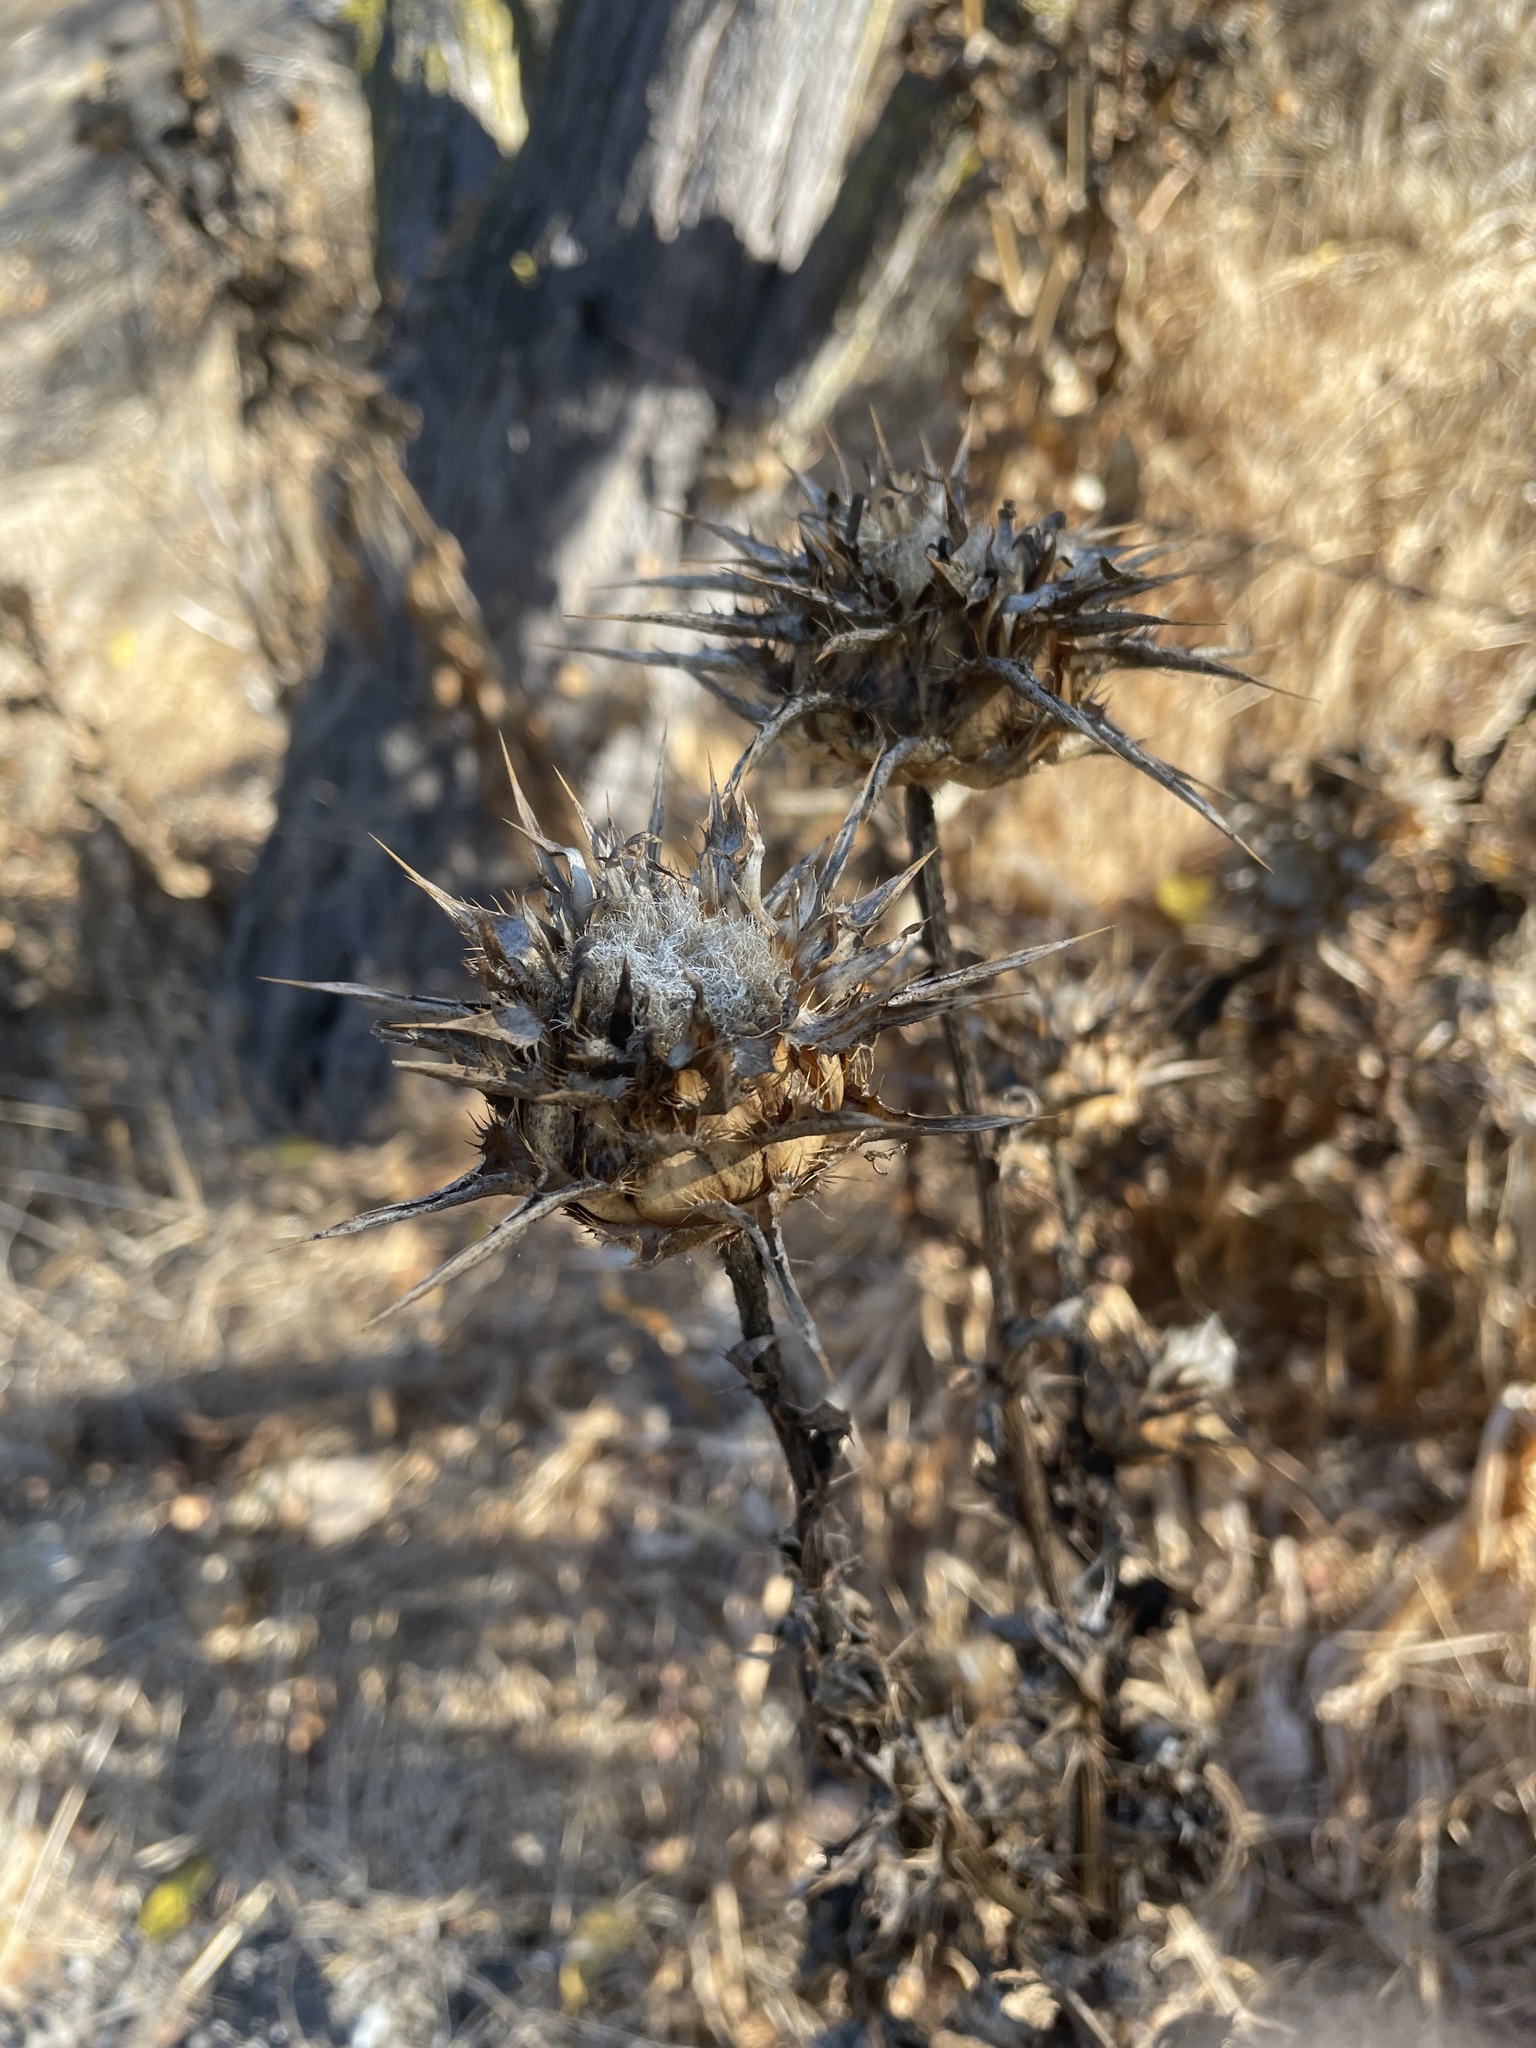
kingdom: Plantae
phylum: Tracheophyta
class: Magnoliopsida
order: Asterales
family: Asteraceae
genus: Silybum
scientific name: Silybum marianum
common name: Milk thistle
